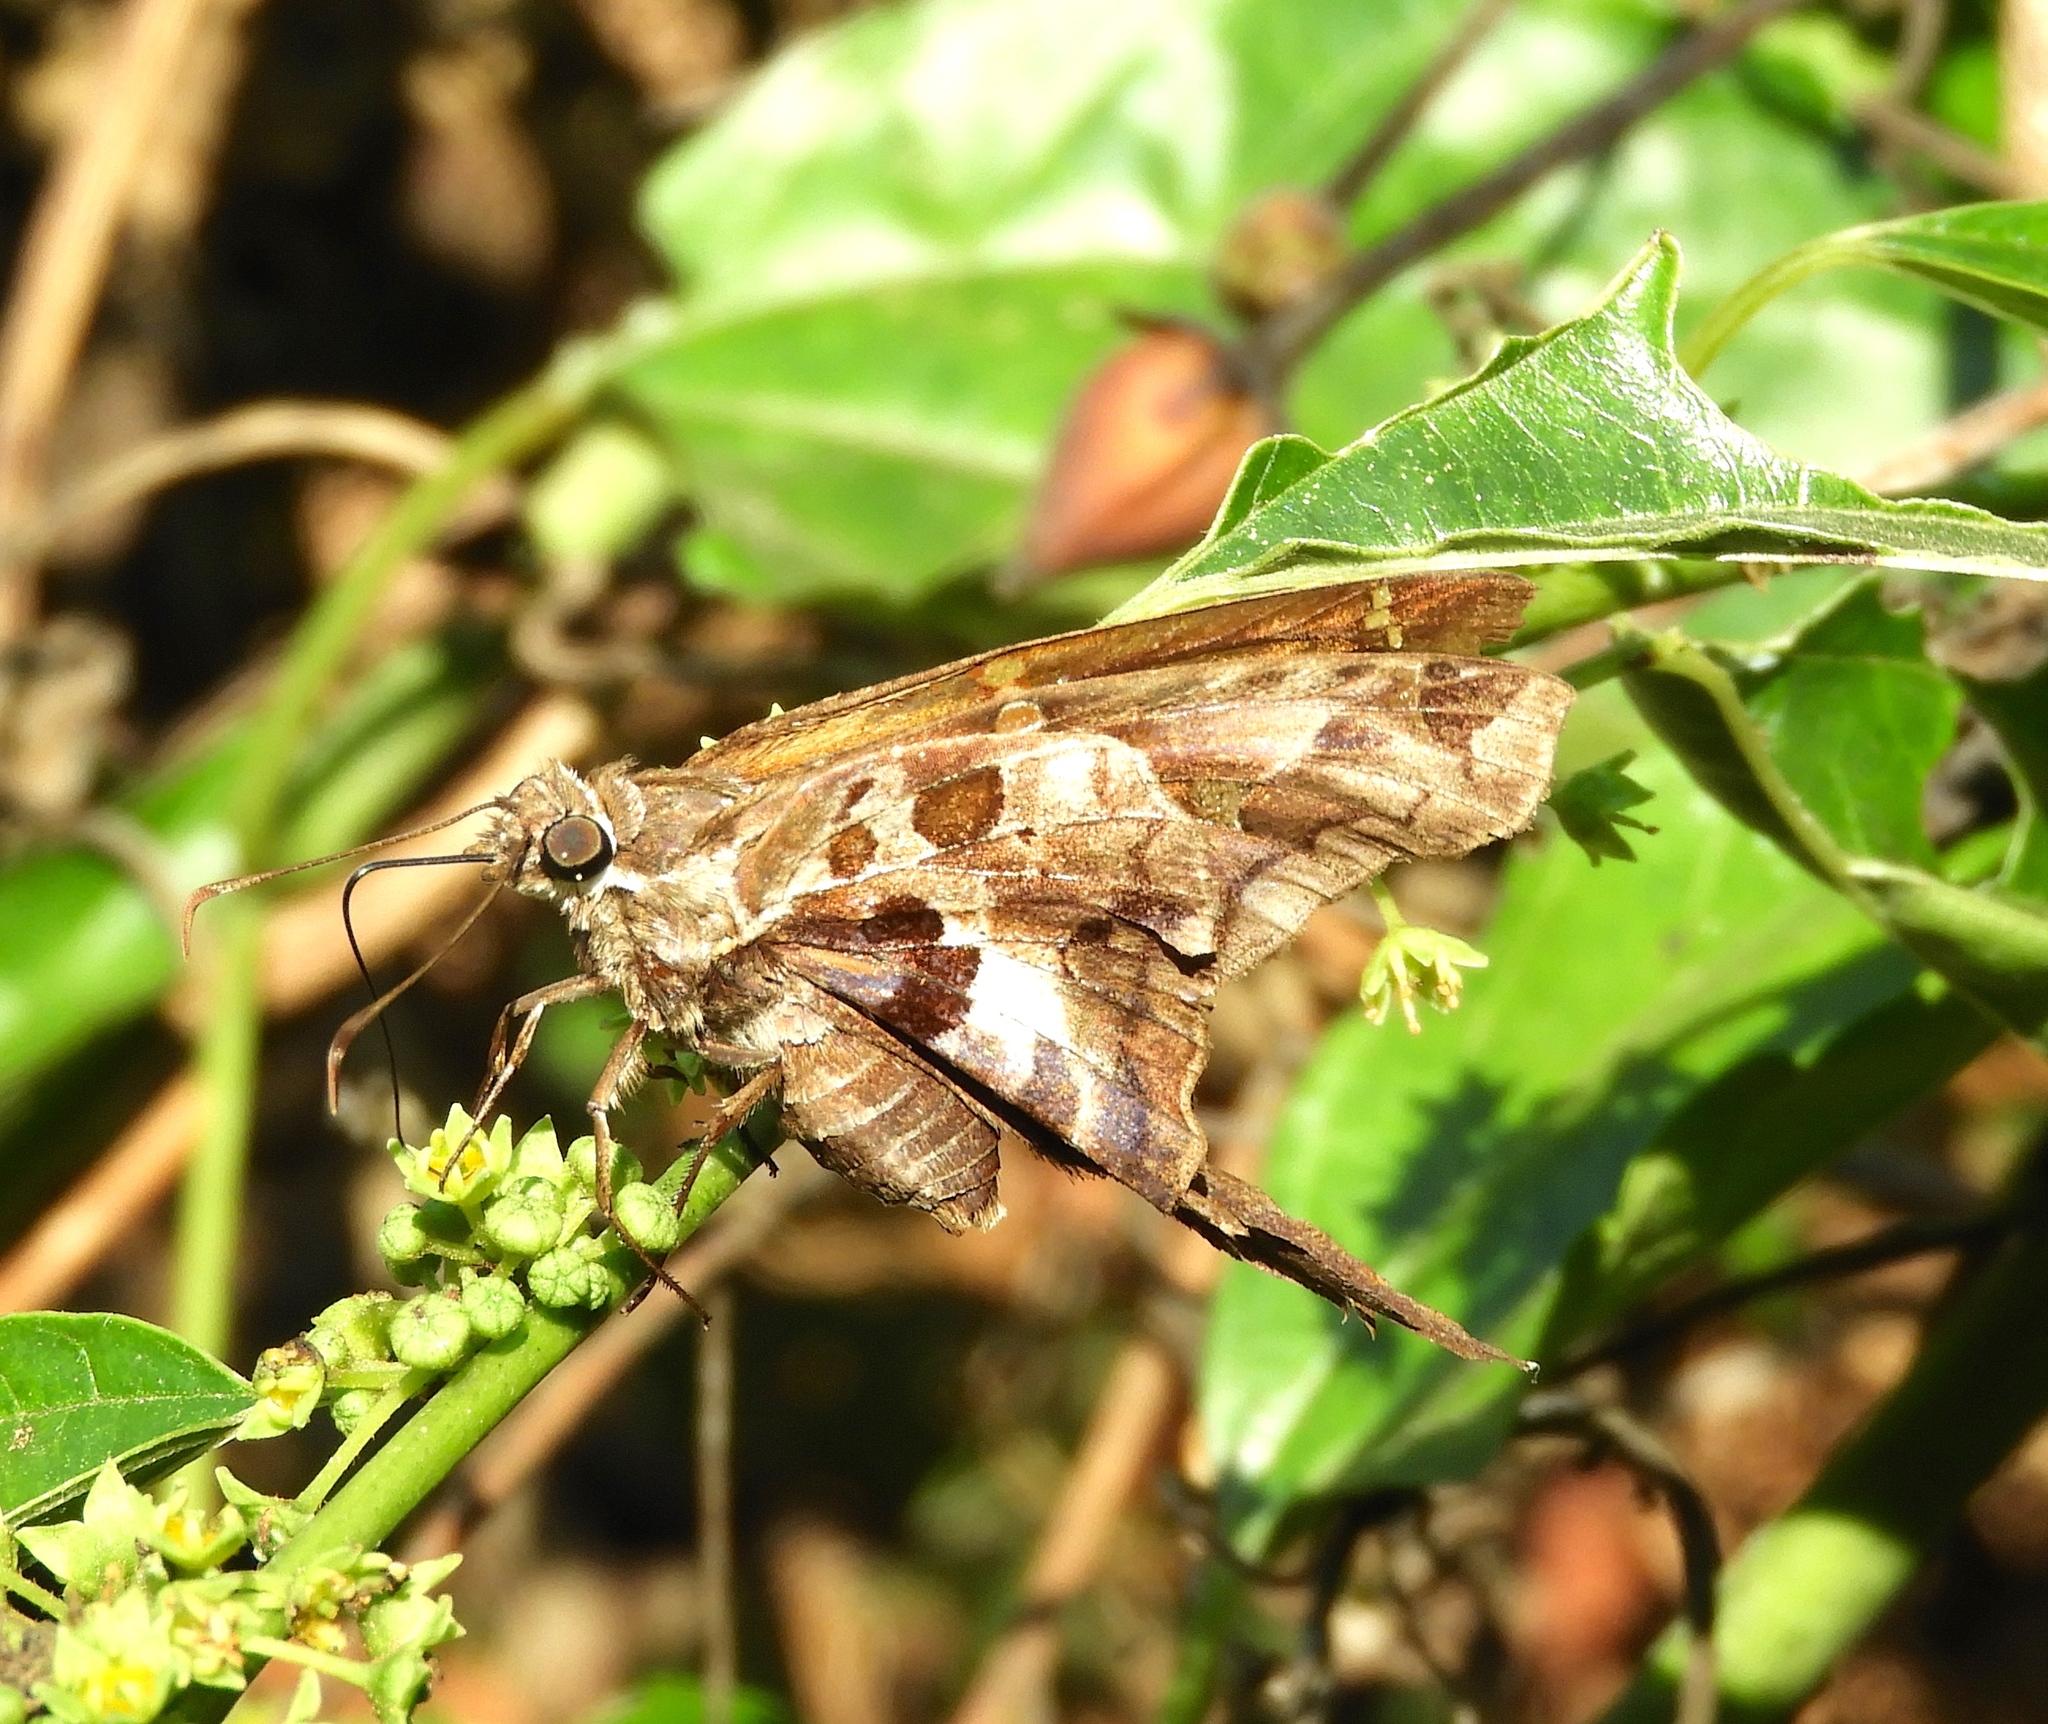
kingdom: Animalia
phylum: Arthropoda
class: Insecta
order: Lepidoptera
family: Hesperiidae
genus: Chioides
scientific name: Chioides zilpa
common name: Zilpa longtail
